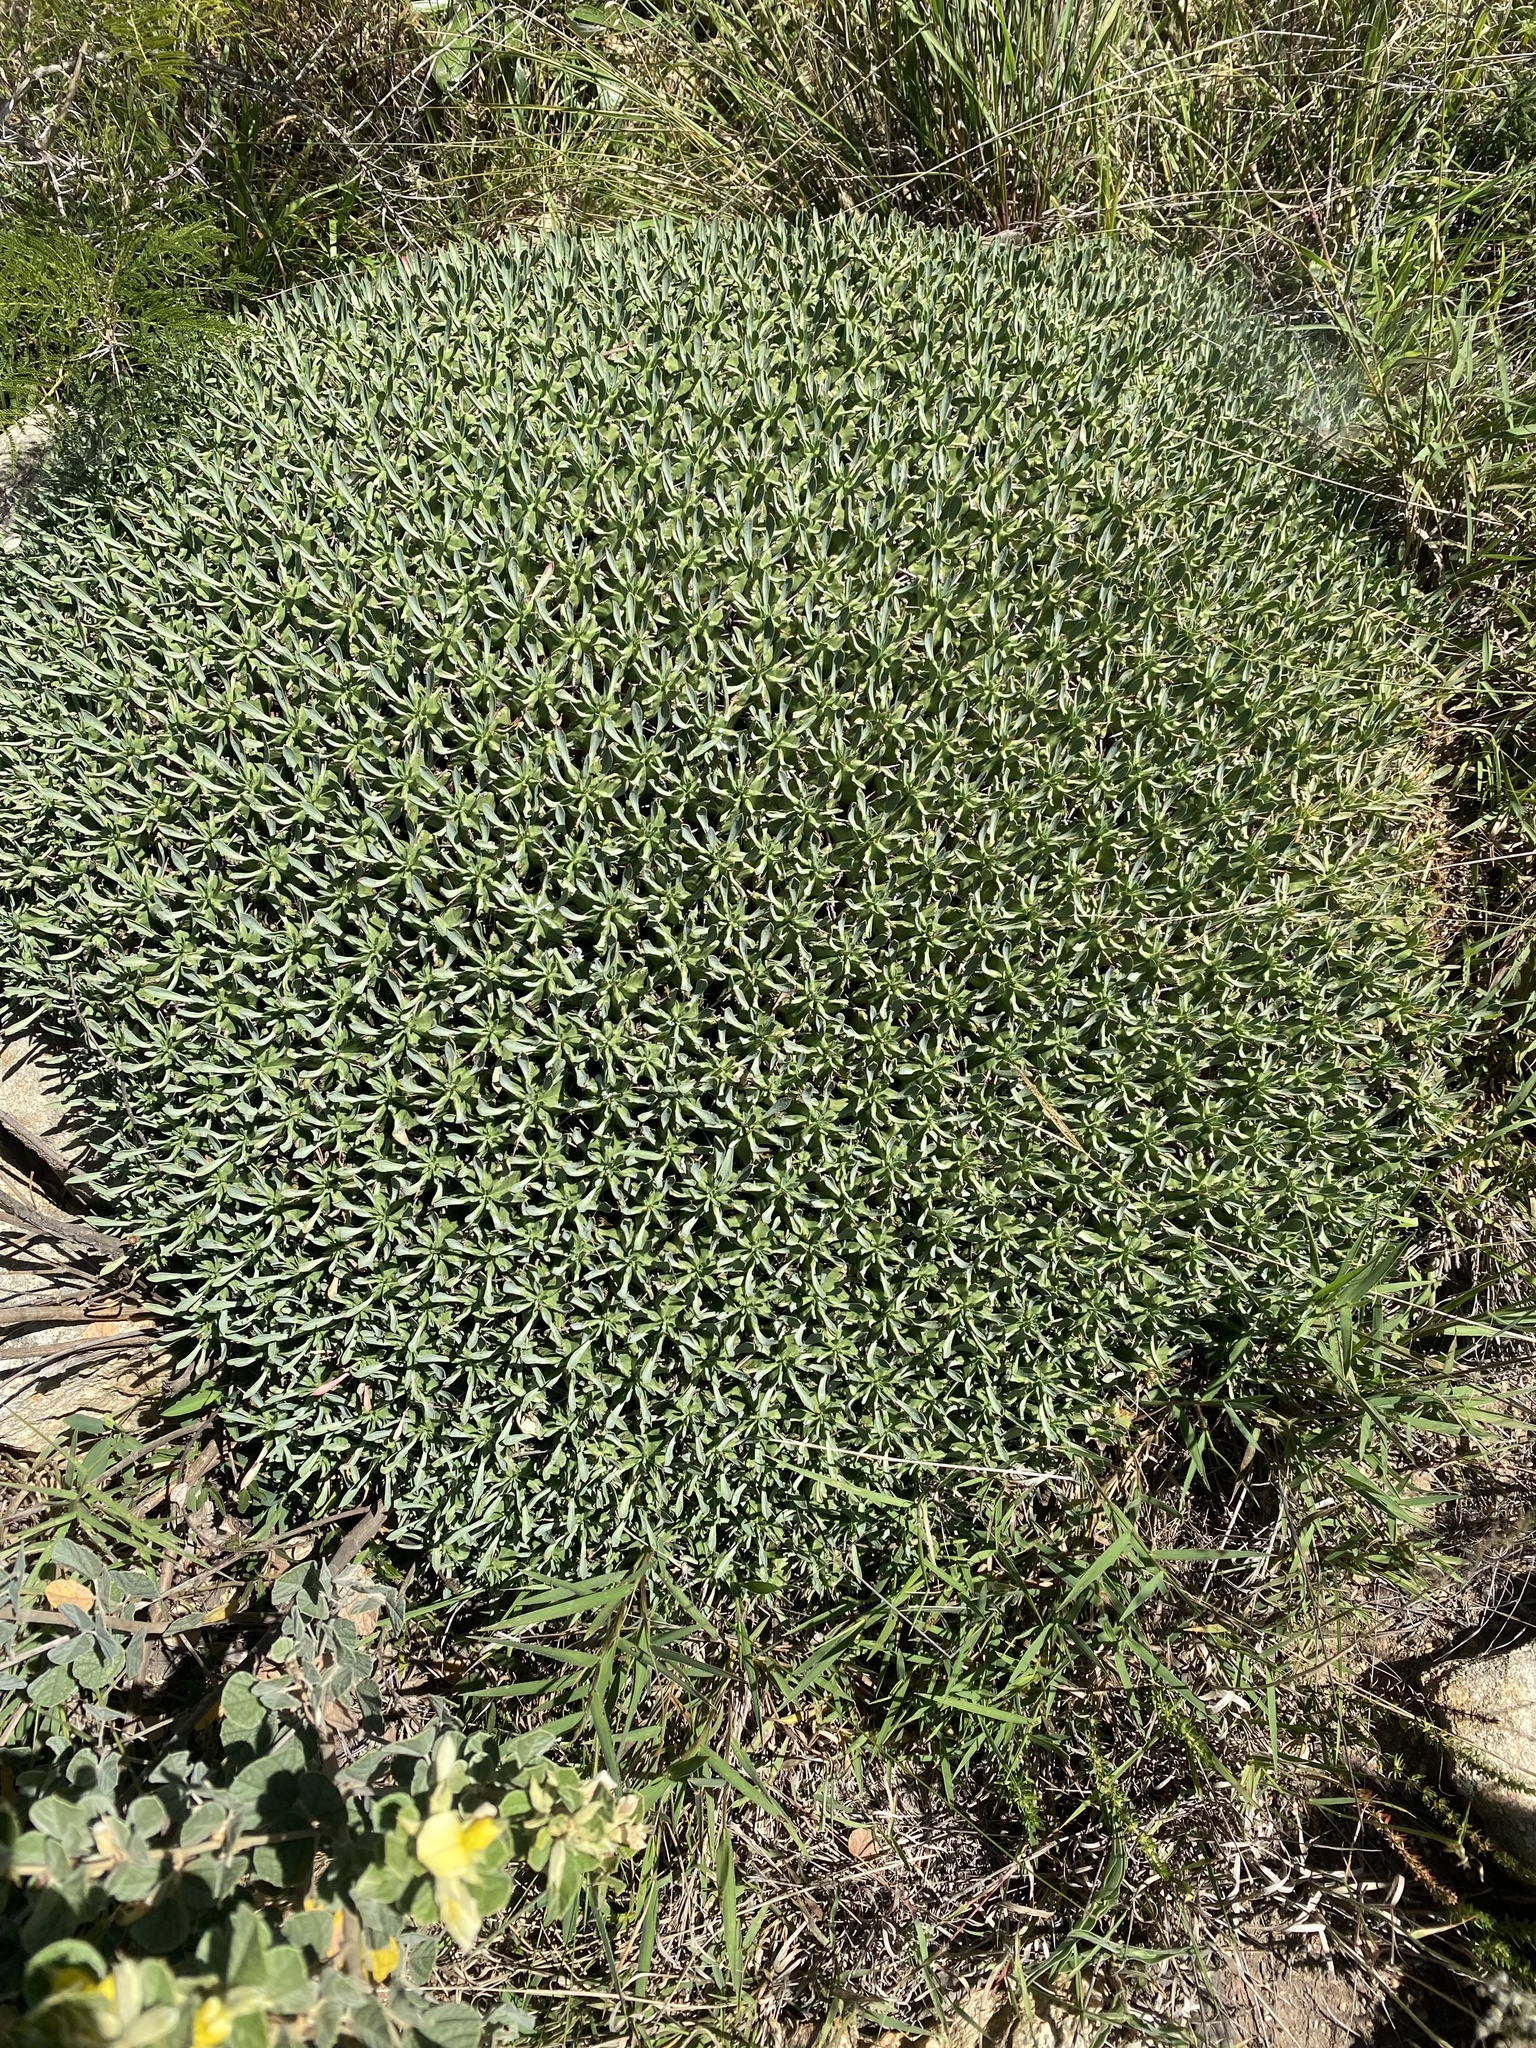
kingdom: Plantae
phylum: Tracheophyta
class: Magnoliopsida
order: Malpighiales
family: Euphorbiaceae
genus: Euphorbia
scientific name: Euphorbia pulvinata
